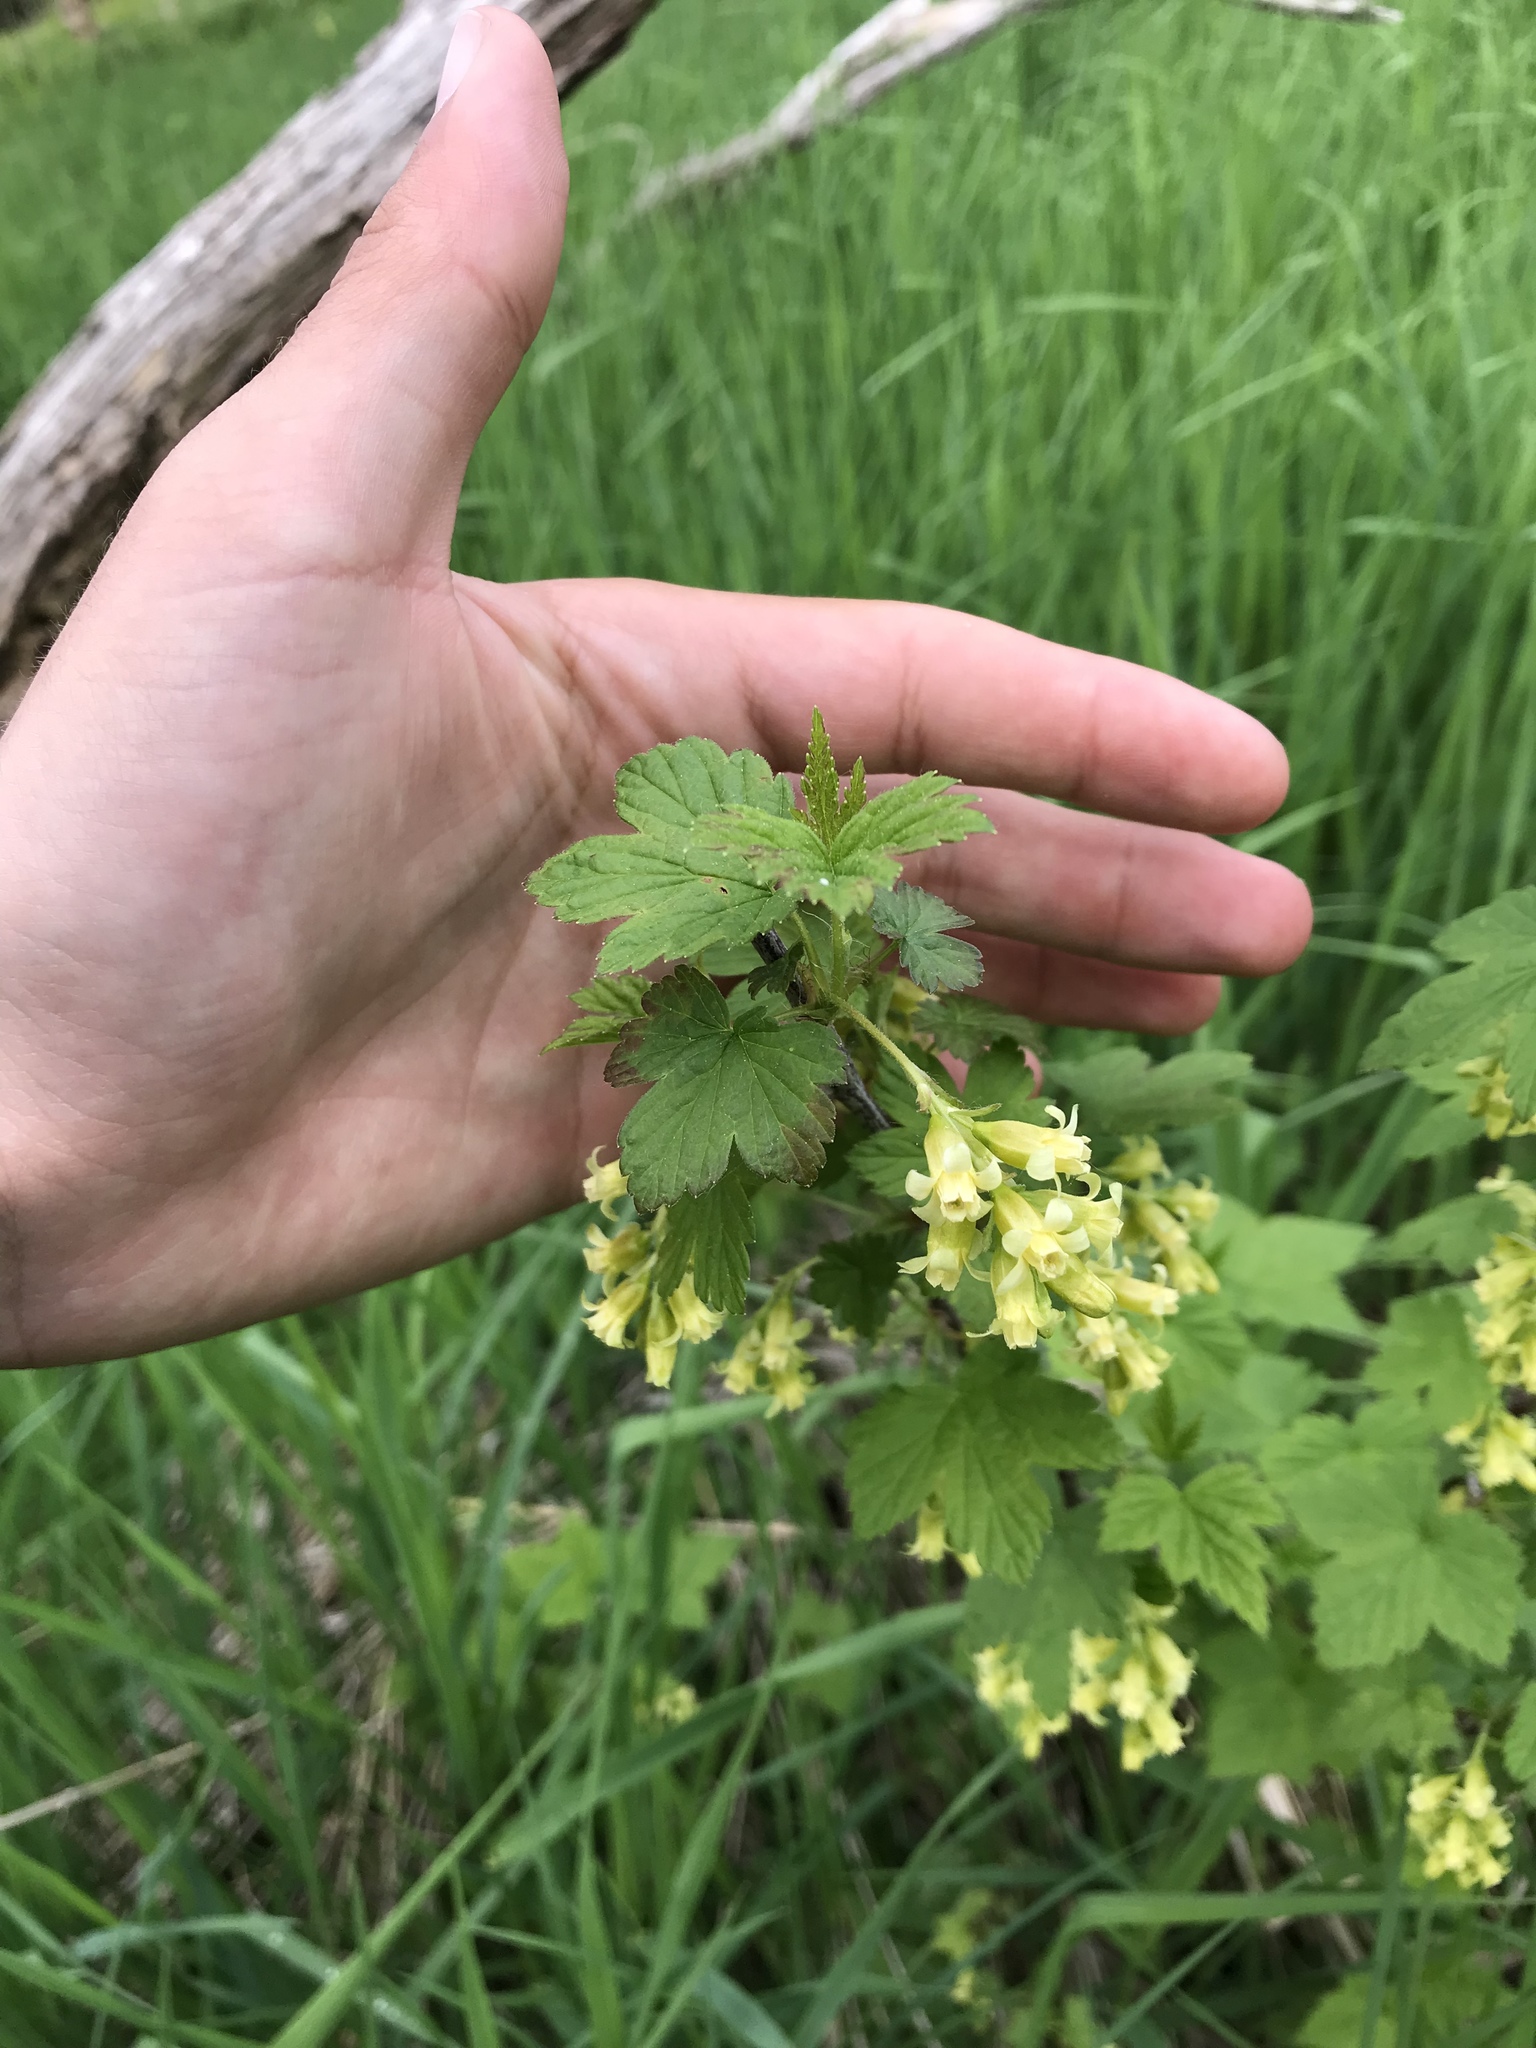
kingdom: Plantae
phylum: Tracheophyta
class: Magnoliopsida
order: Saxifragales
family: Grossulariaceae
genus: Ribes
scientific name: Ribes americanum
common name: American black currant
